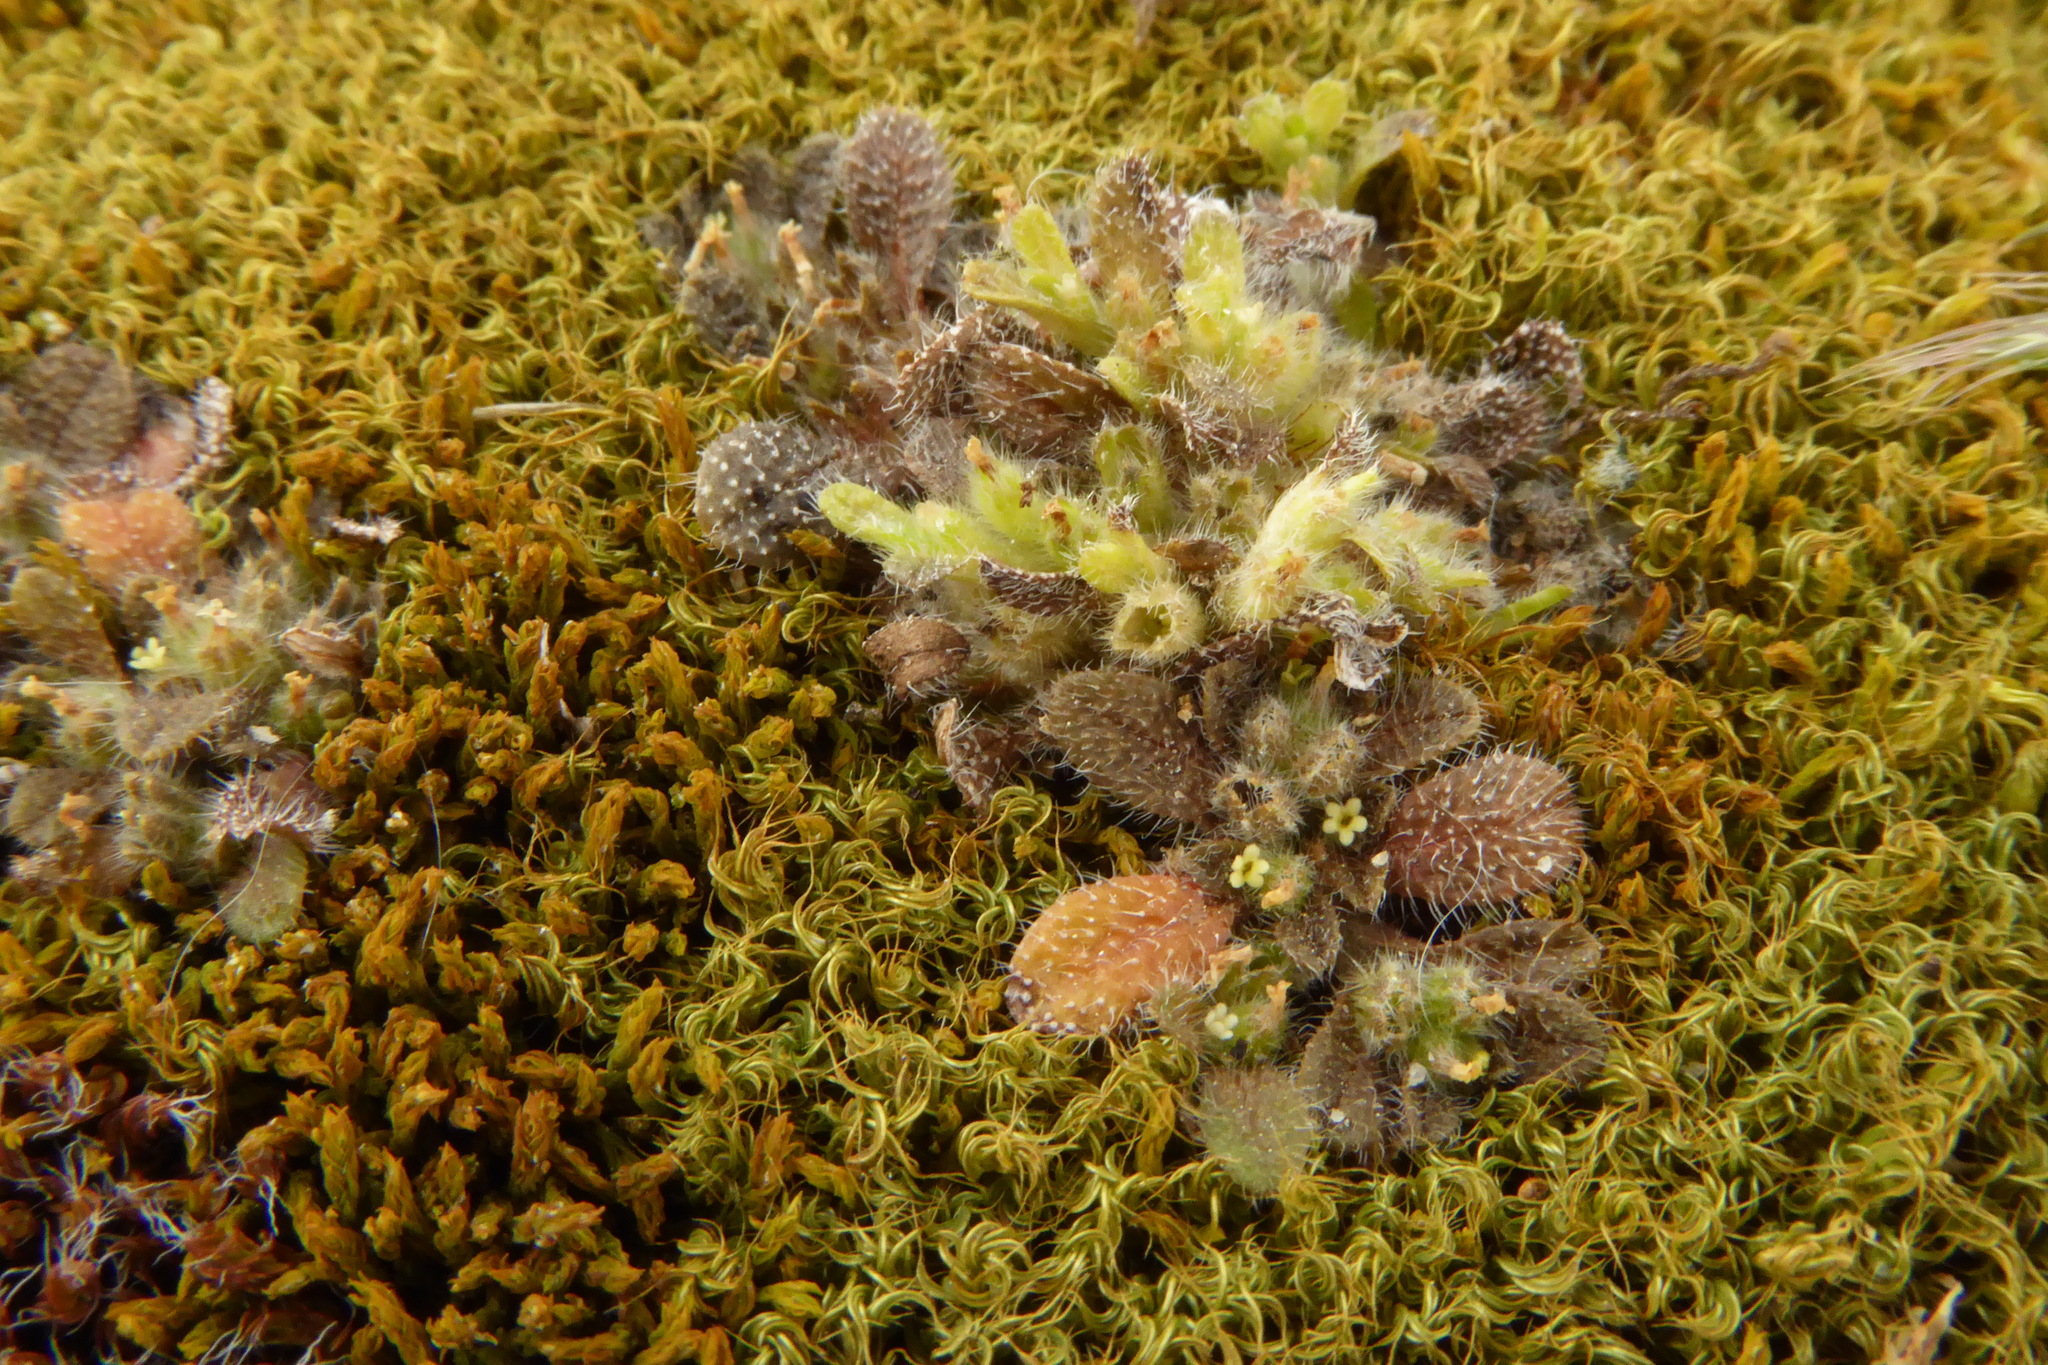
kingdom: Plantae
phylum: Tracheophyta
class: Magnoliopsida
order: Boraginales
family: Boraginaceae
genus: Myosotis
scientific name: Myosotis brevis
